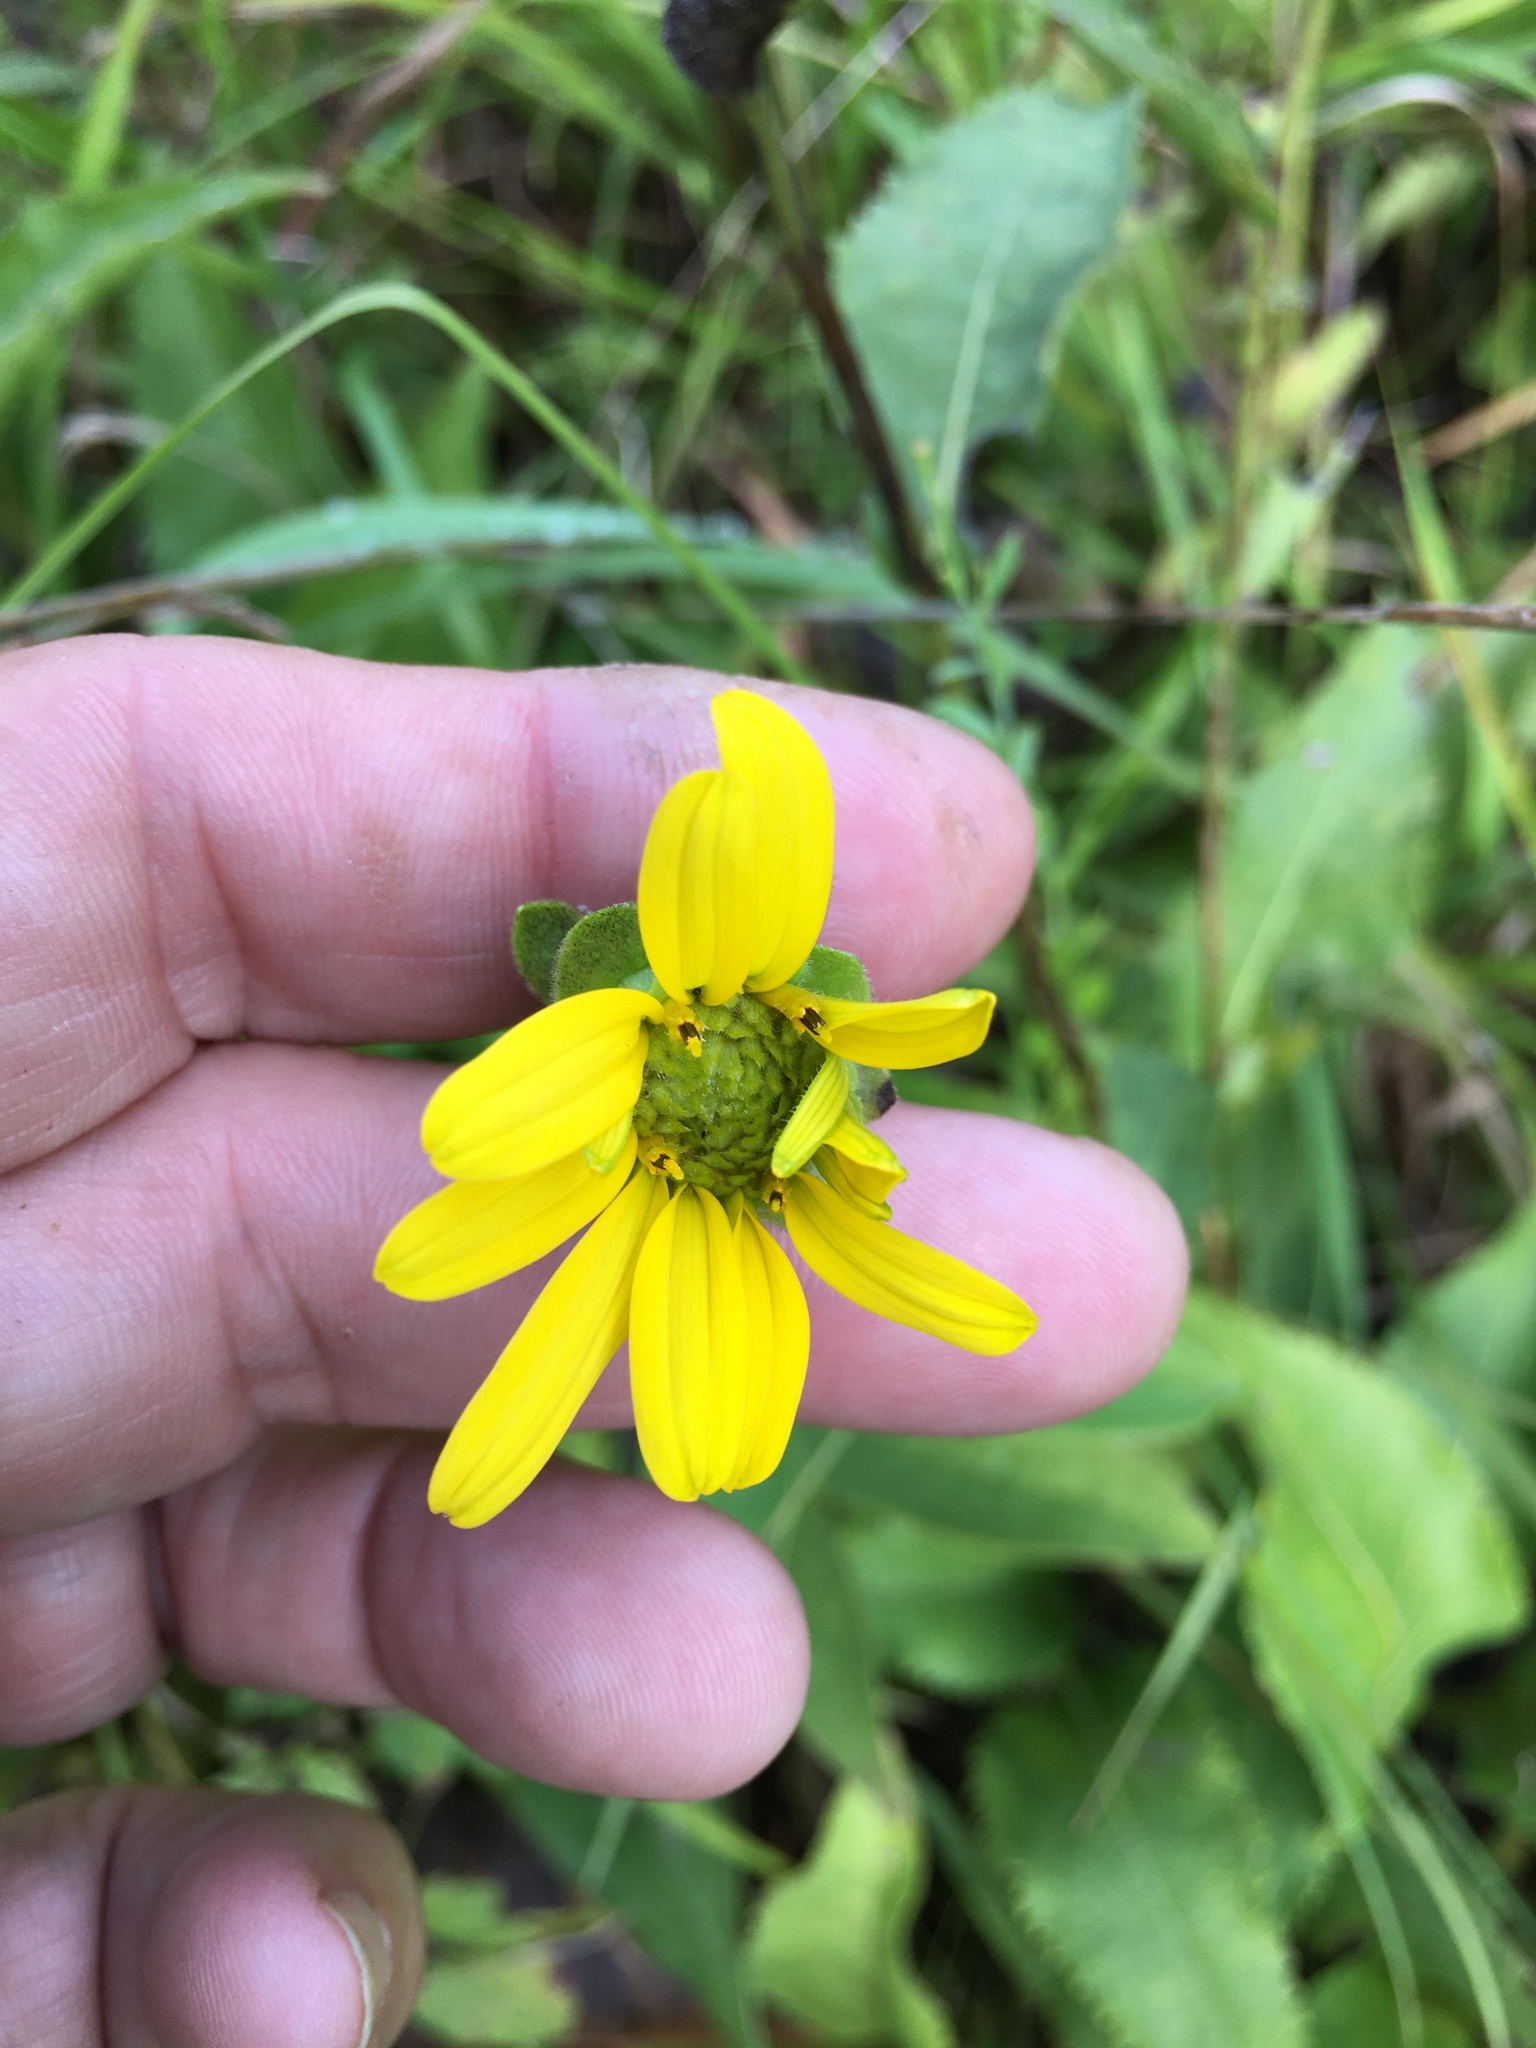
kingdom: Plantae
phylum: Tracheophyta
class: Magnoliopsida
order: Asterales
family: Asteraceae
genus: Silphium
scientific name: Silphium asteriscus
